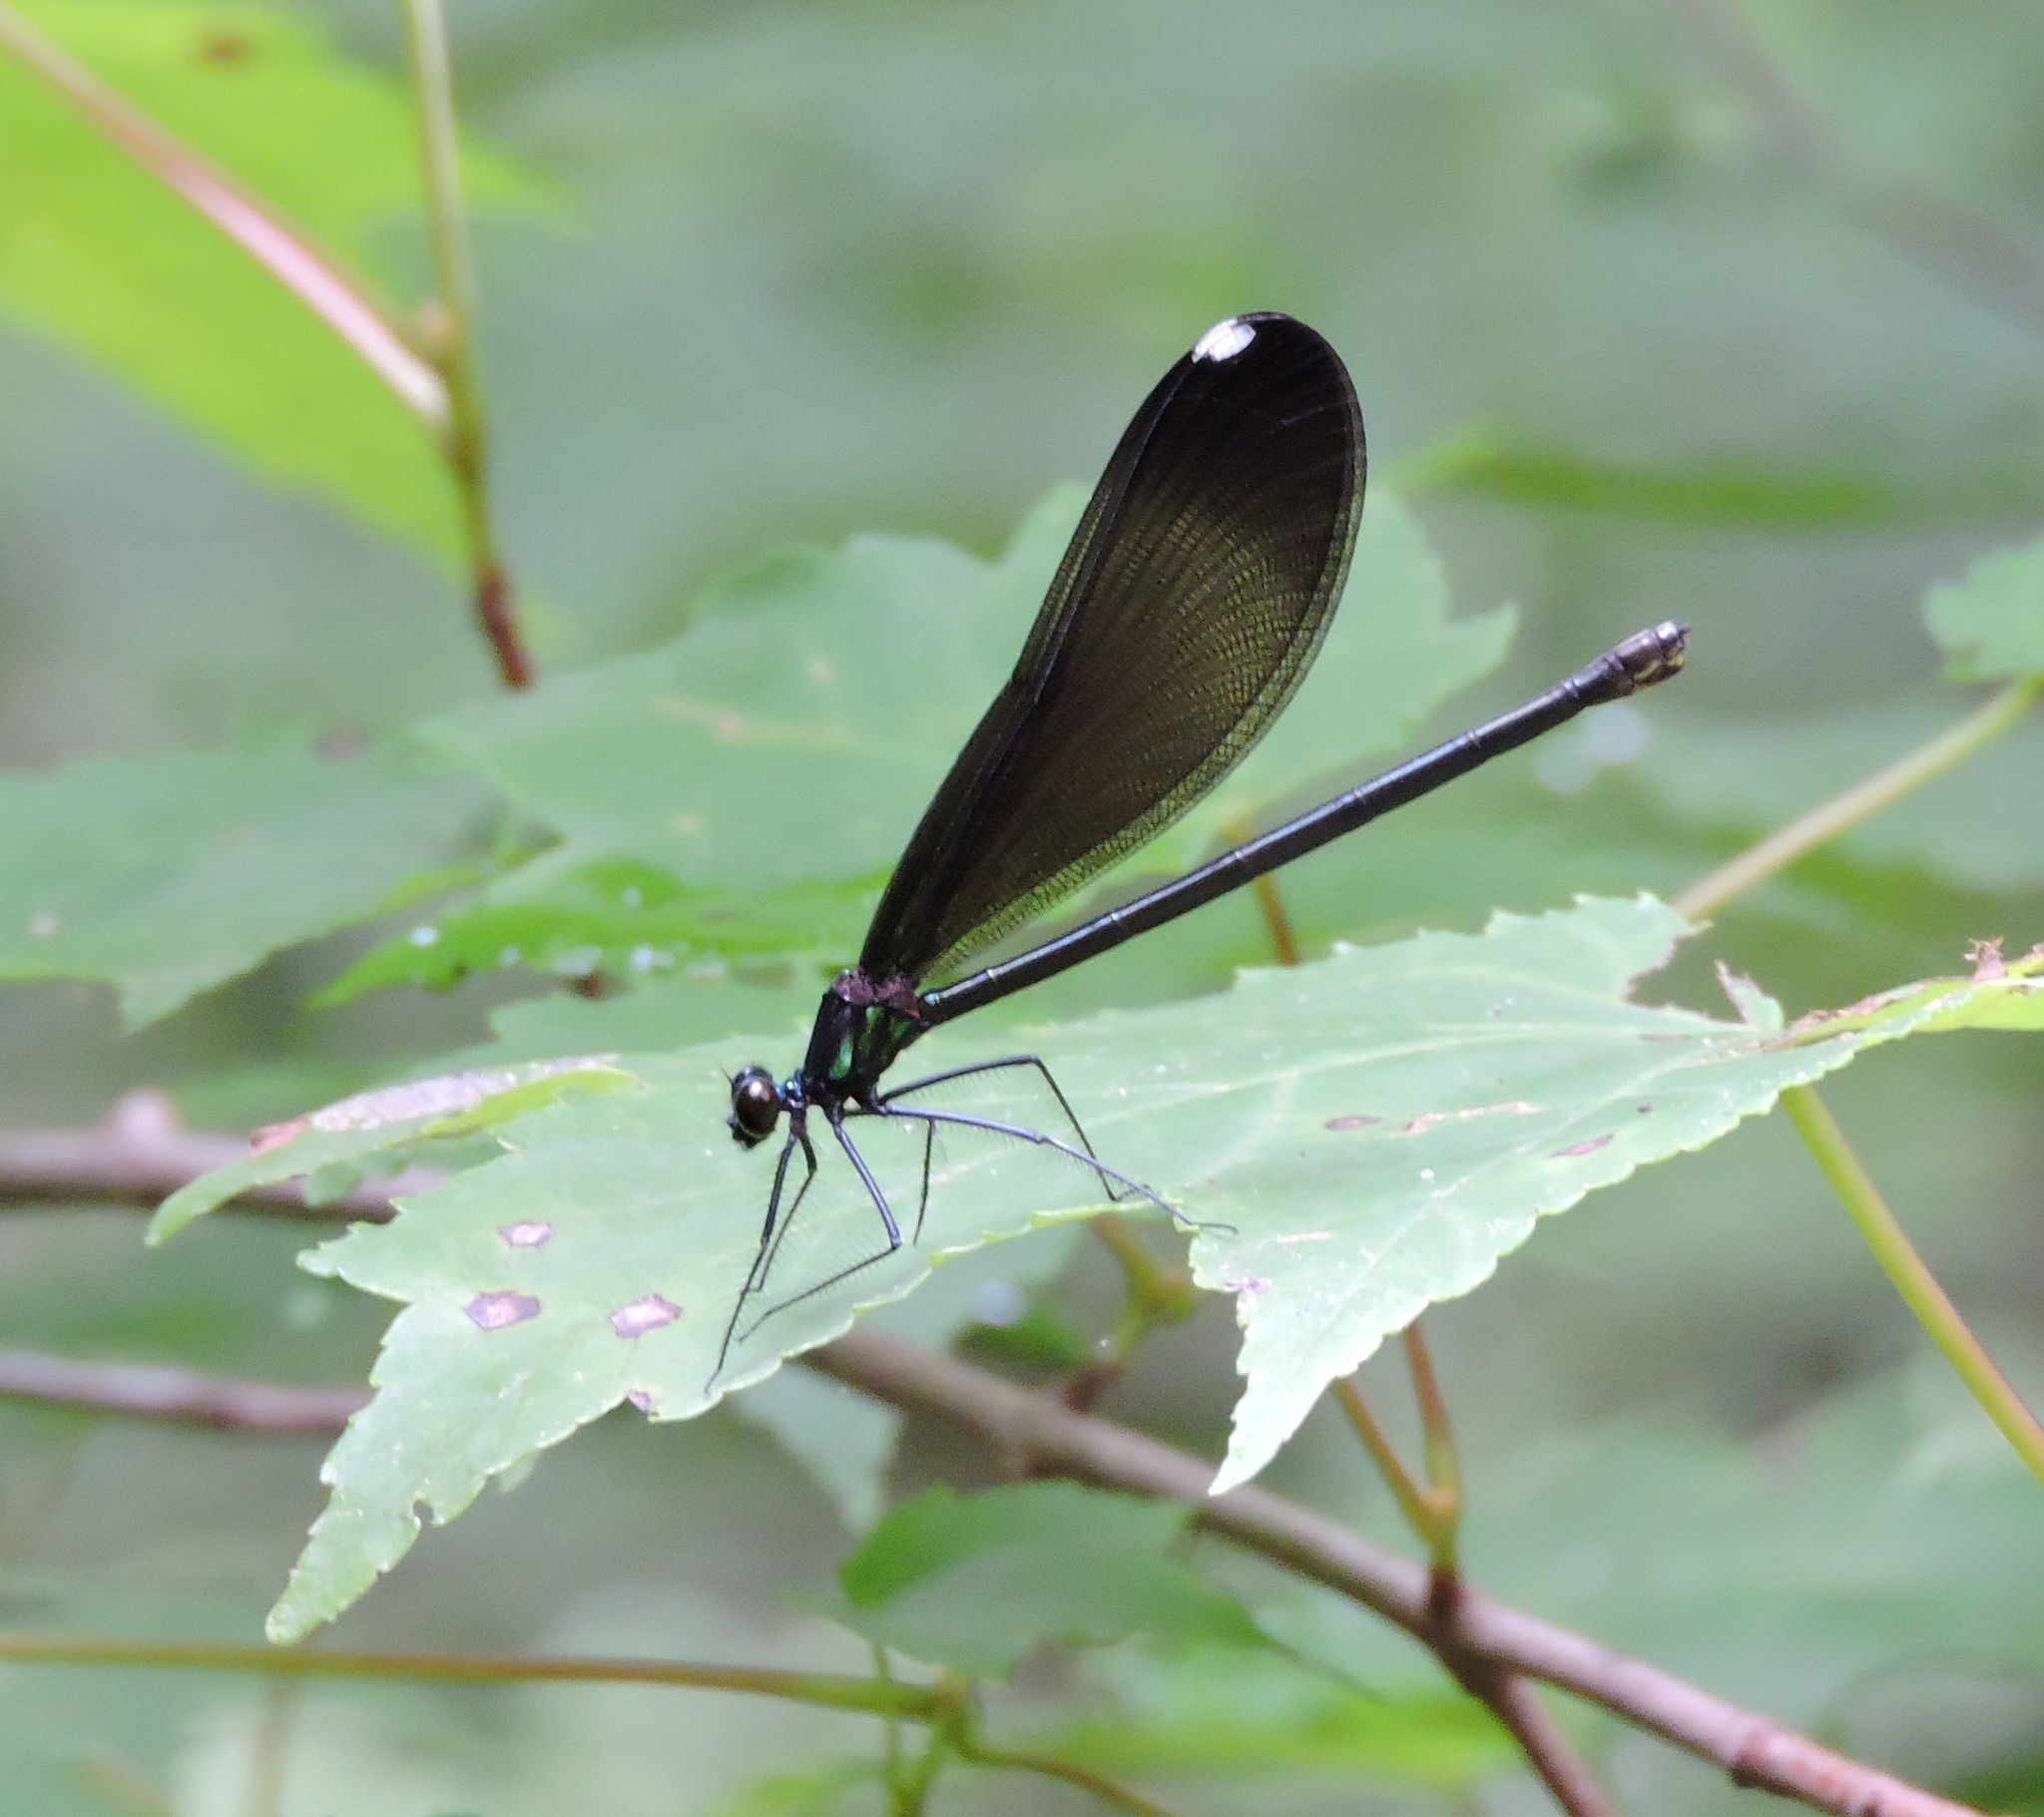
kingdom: Animalia
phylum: Arthropoda
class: Insecta
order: Odonata
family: Calopterygidae
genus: Calopteryx
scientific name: Calopteryx maculata
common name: Ebony jewelwing
